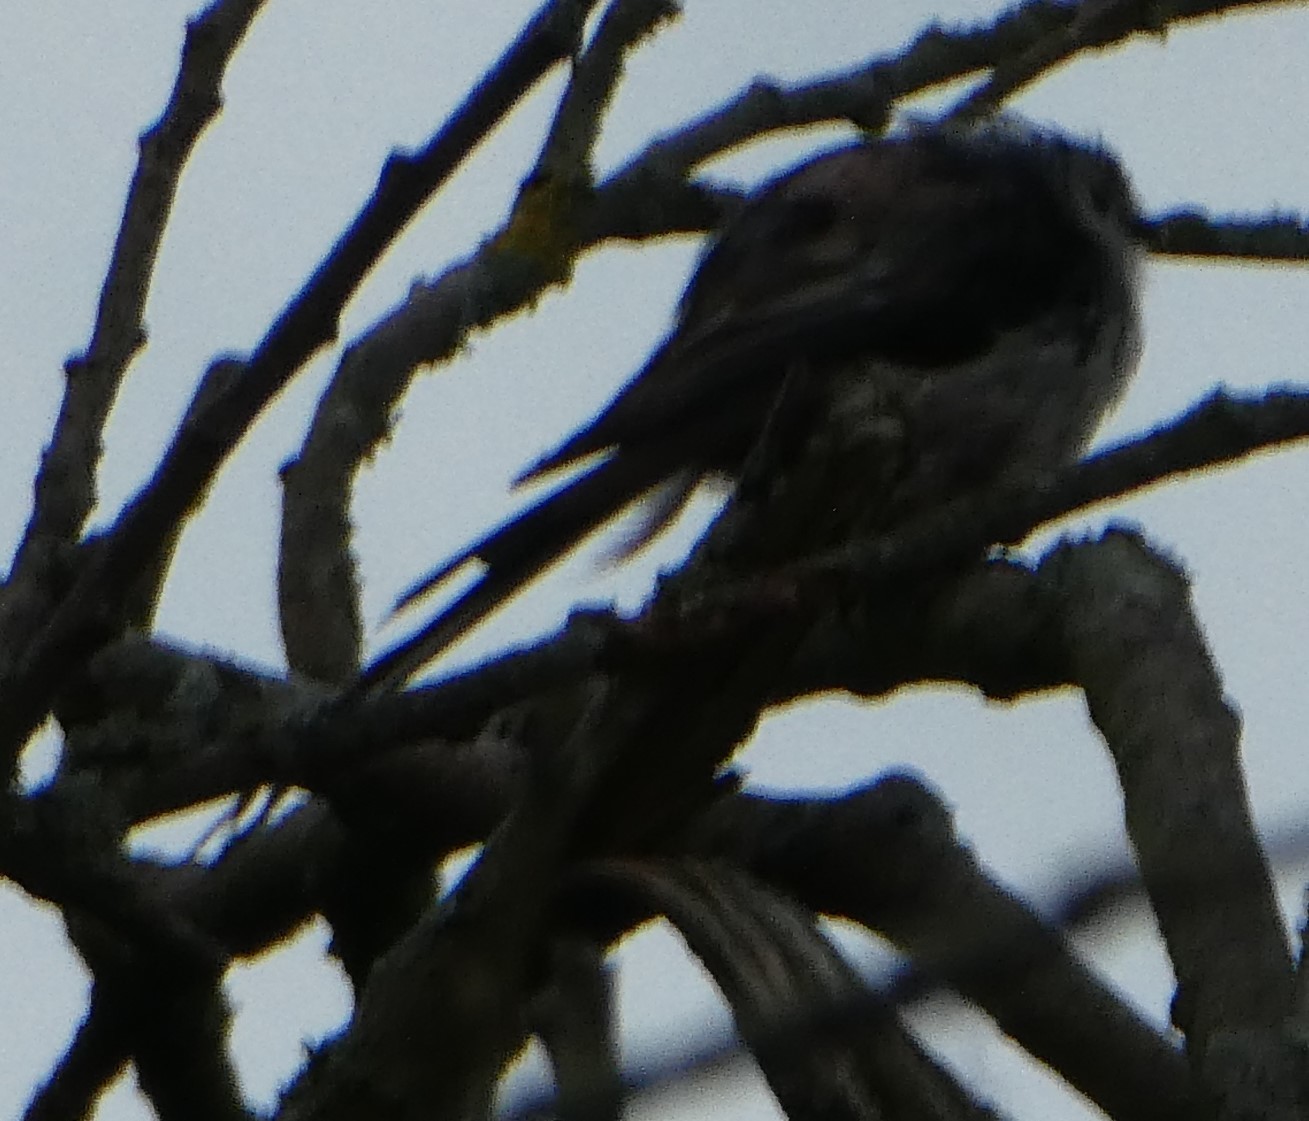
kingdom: Animalia
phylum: Chordata
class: Aves
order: Passeriformes
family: Aegithalidae
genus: Aegithalos
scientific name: Aegithalos caudatus
